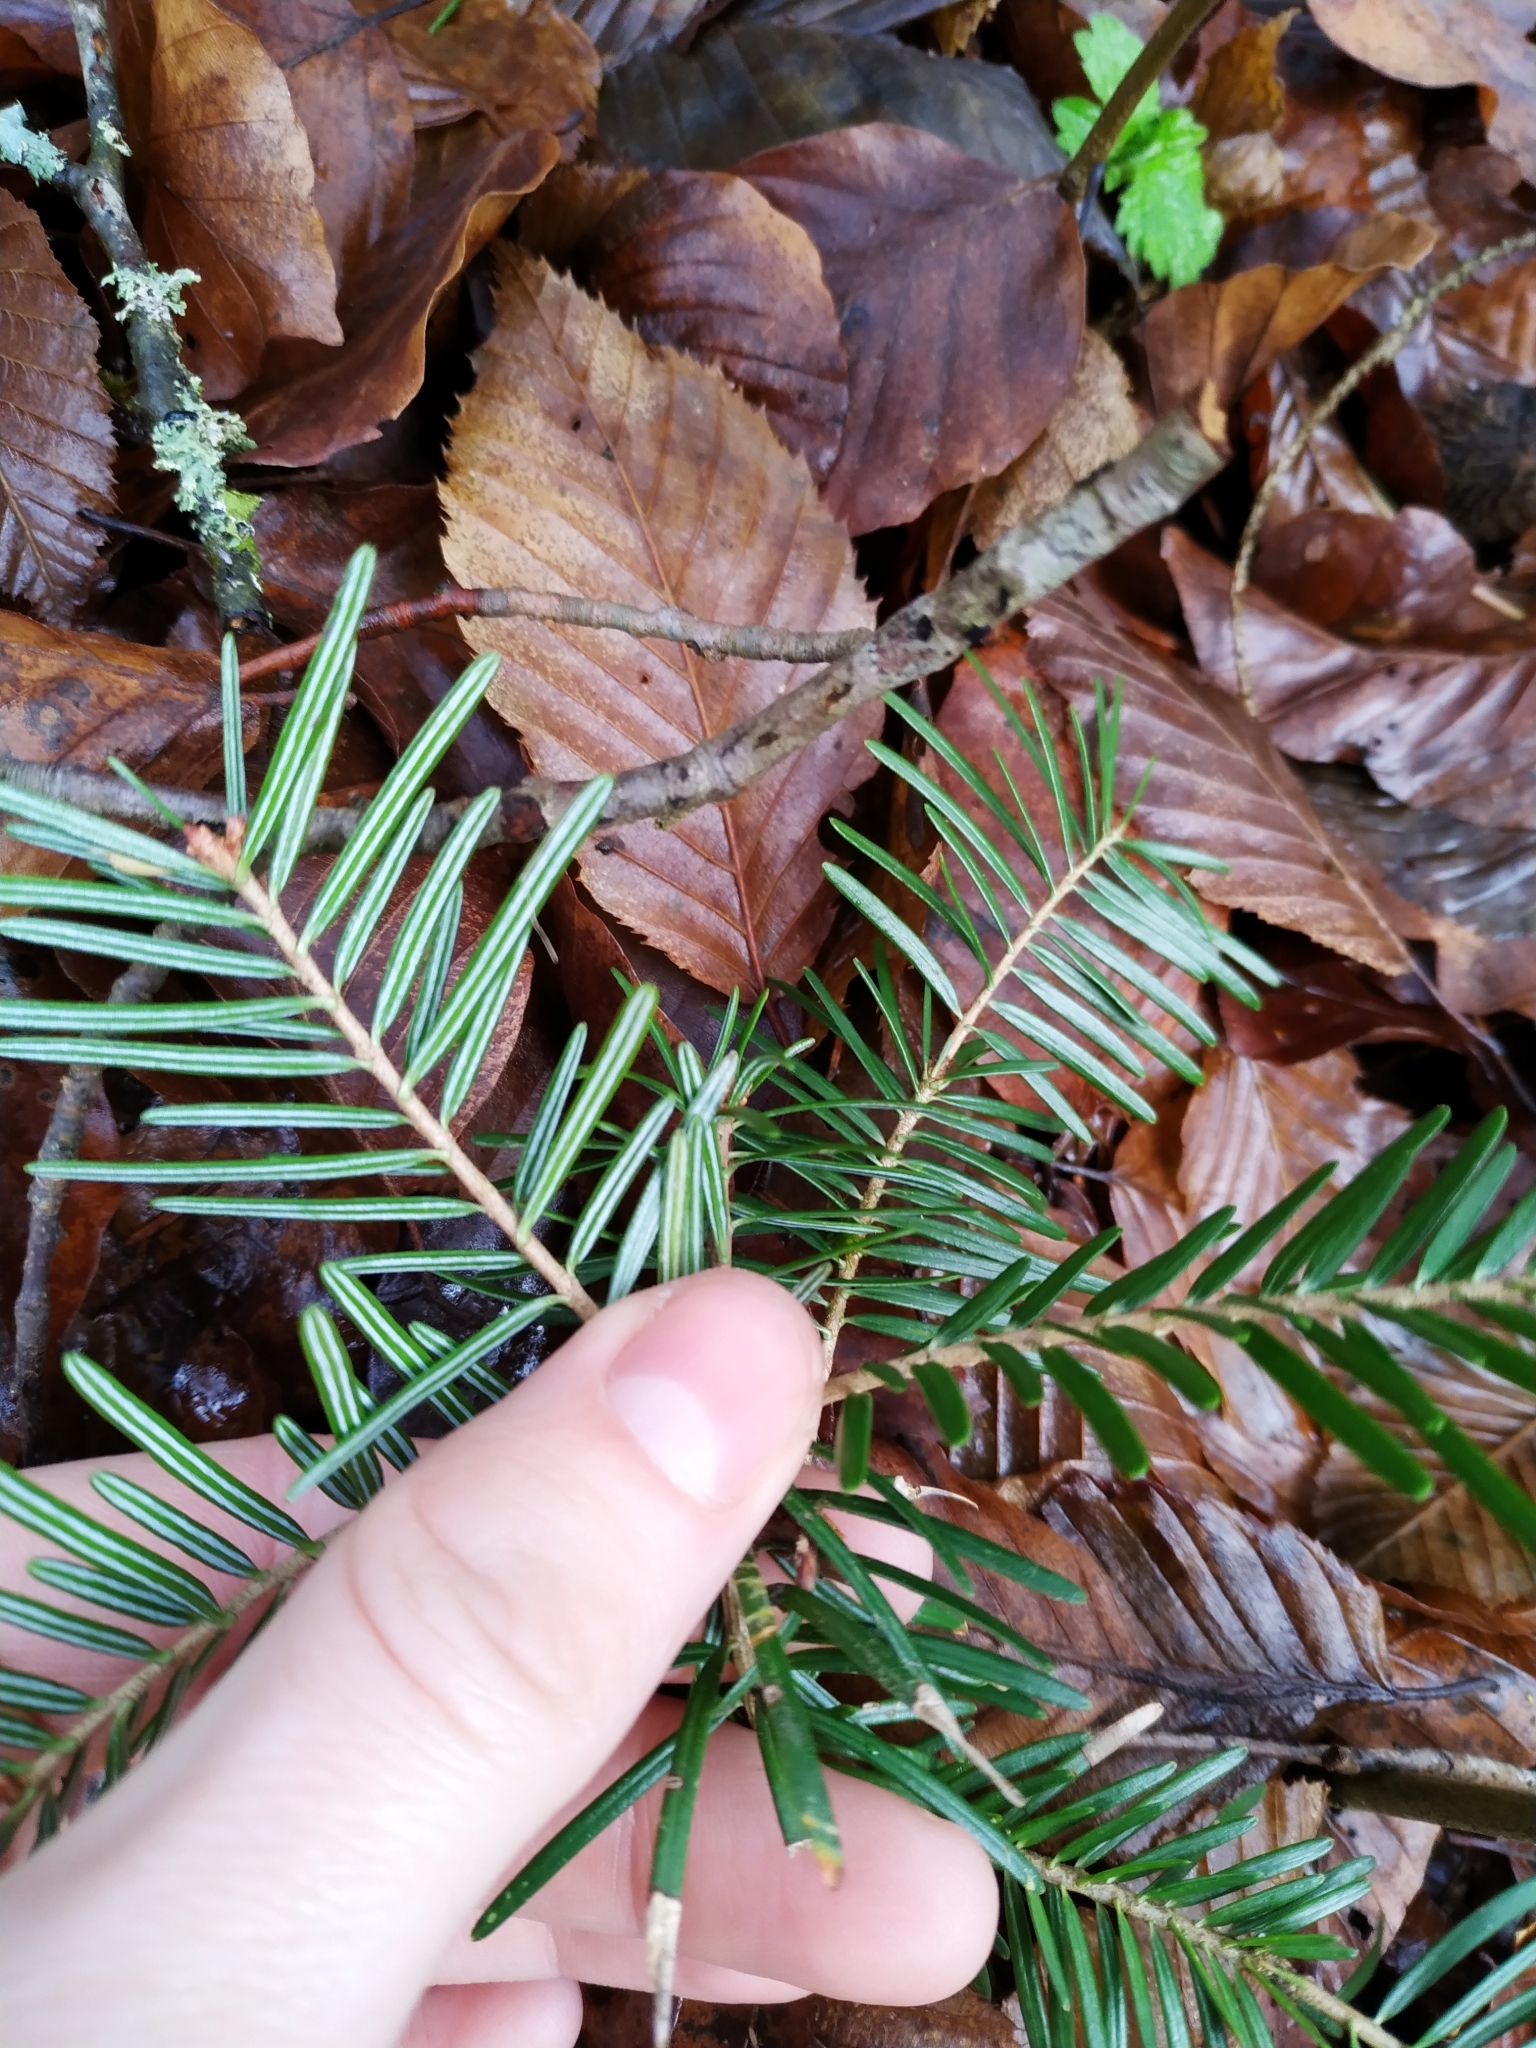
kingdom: Plantae
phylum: Tracheophyta
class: Pinopsida
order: Pinales
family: Pinaceae
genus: Abies
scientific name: Abies alba
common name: Silver fir
